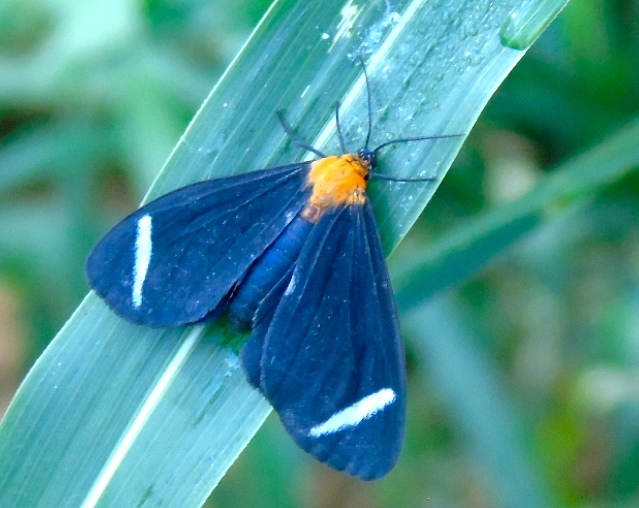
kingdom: Animalia
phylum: Arthropoda
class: Insecta
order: Lepidoptera
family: Erebidae
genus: Hyalurga
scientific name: Hyalurga
